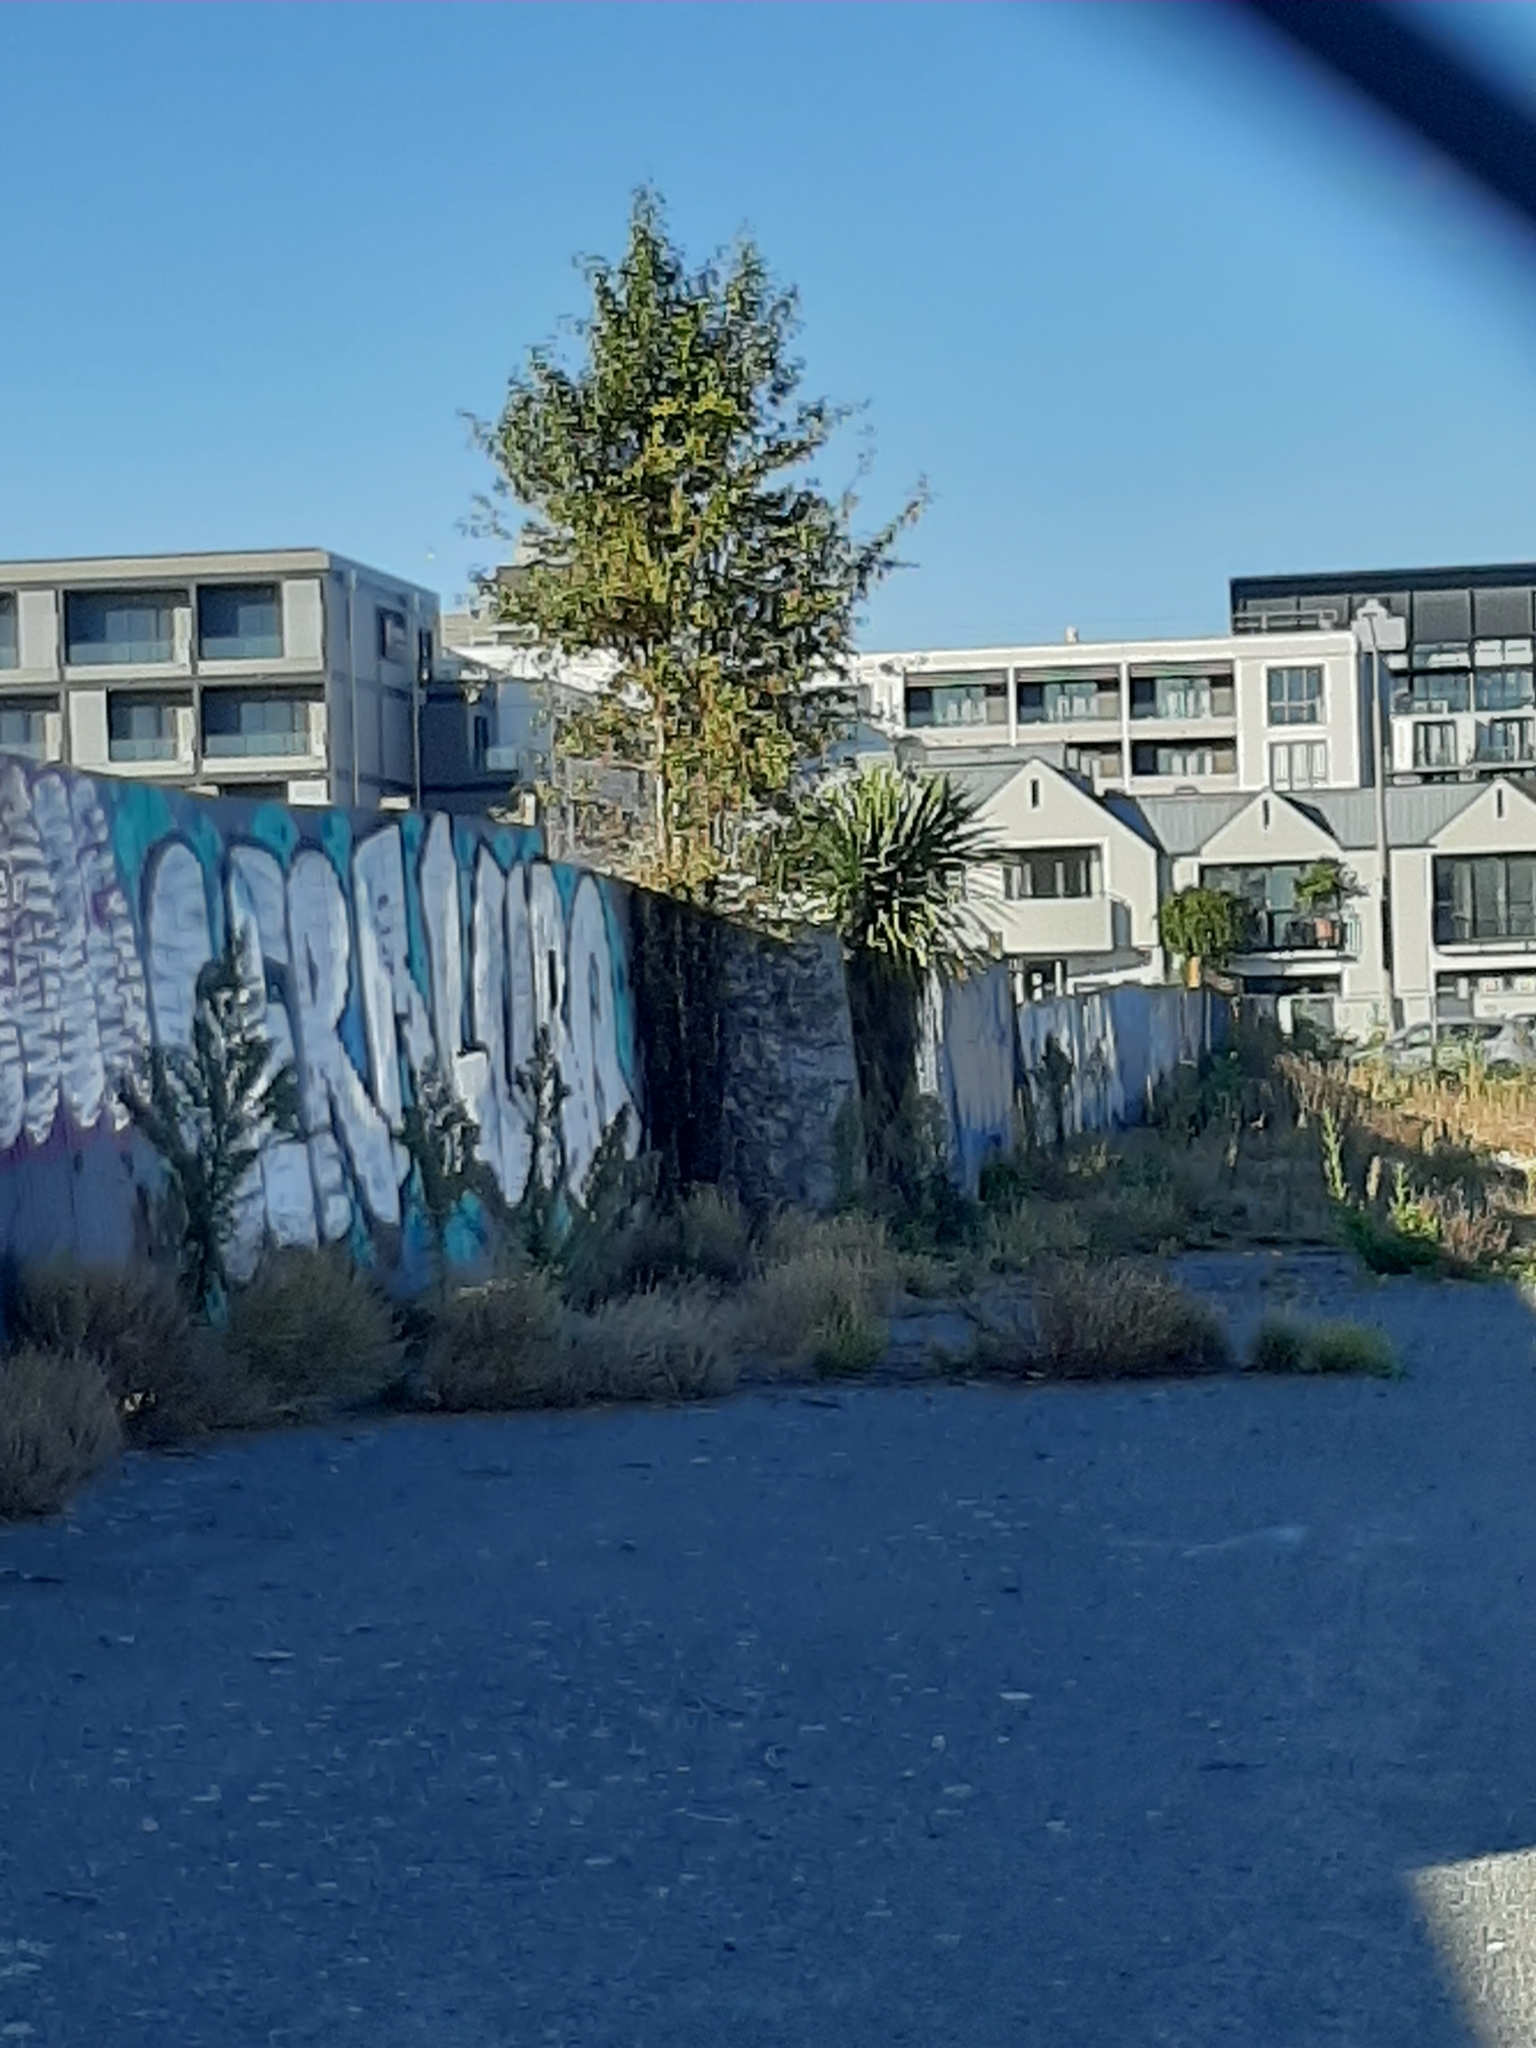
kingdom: Plantae
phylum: Tracheophyta
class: Liliopsida
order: Asparagales
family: Asparagaceae
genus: Cordyline
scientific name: Cordyline australis
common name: Cabbage-palm
